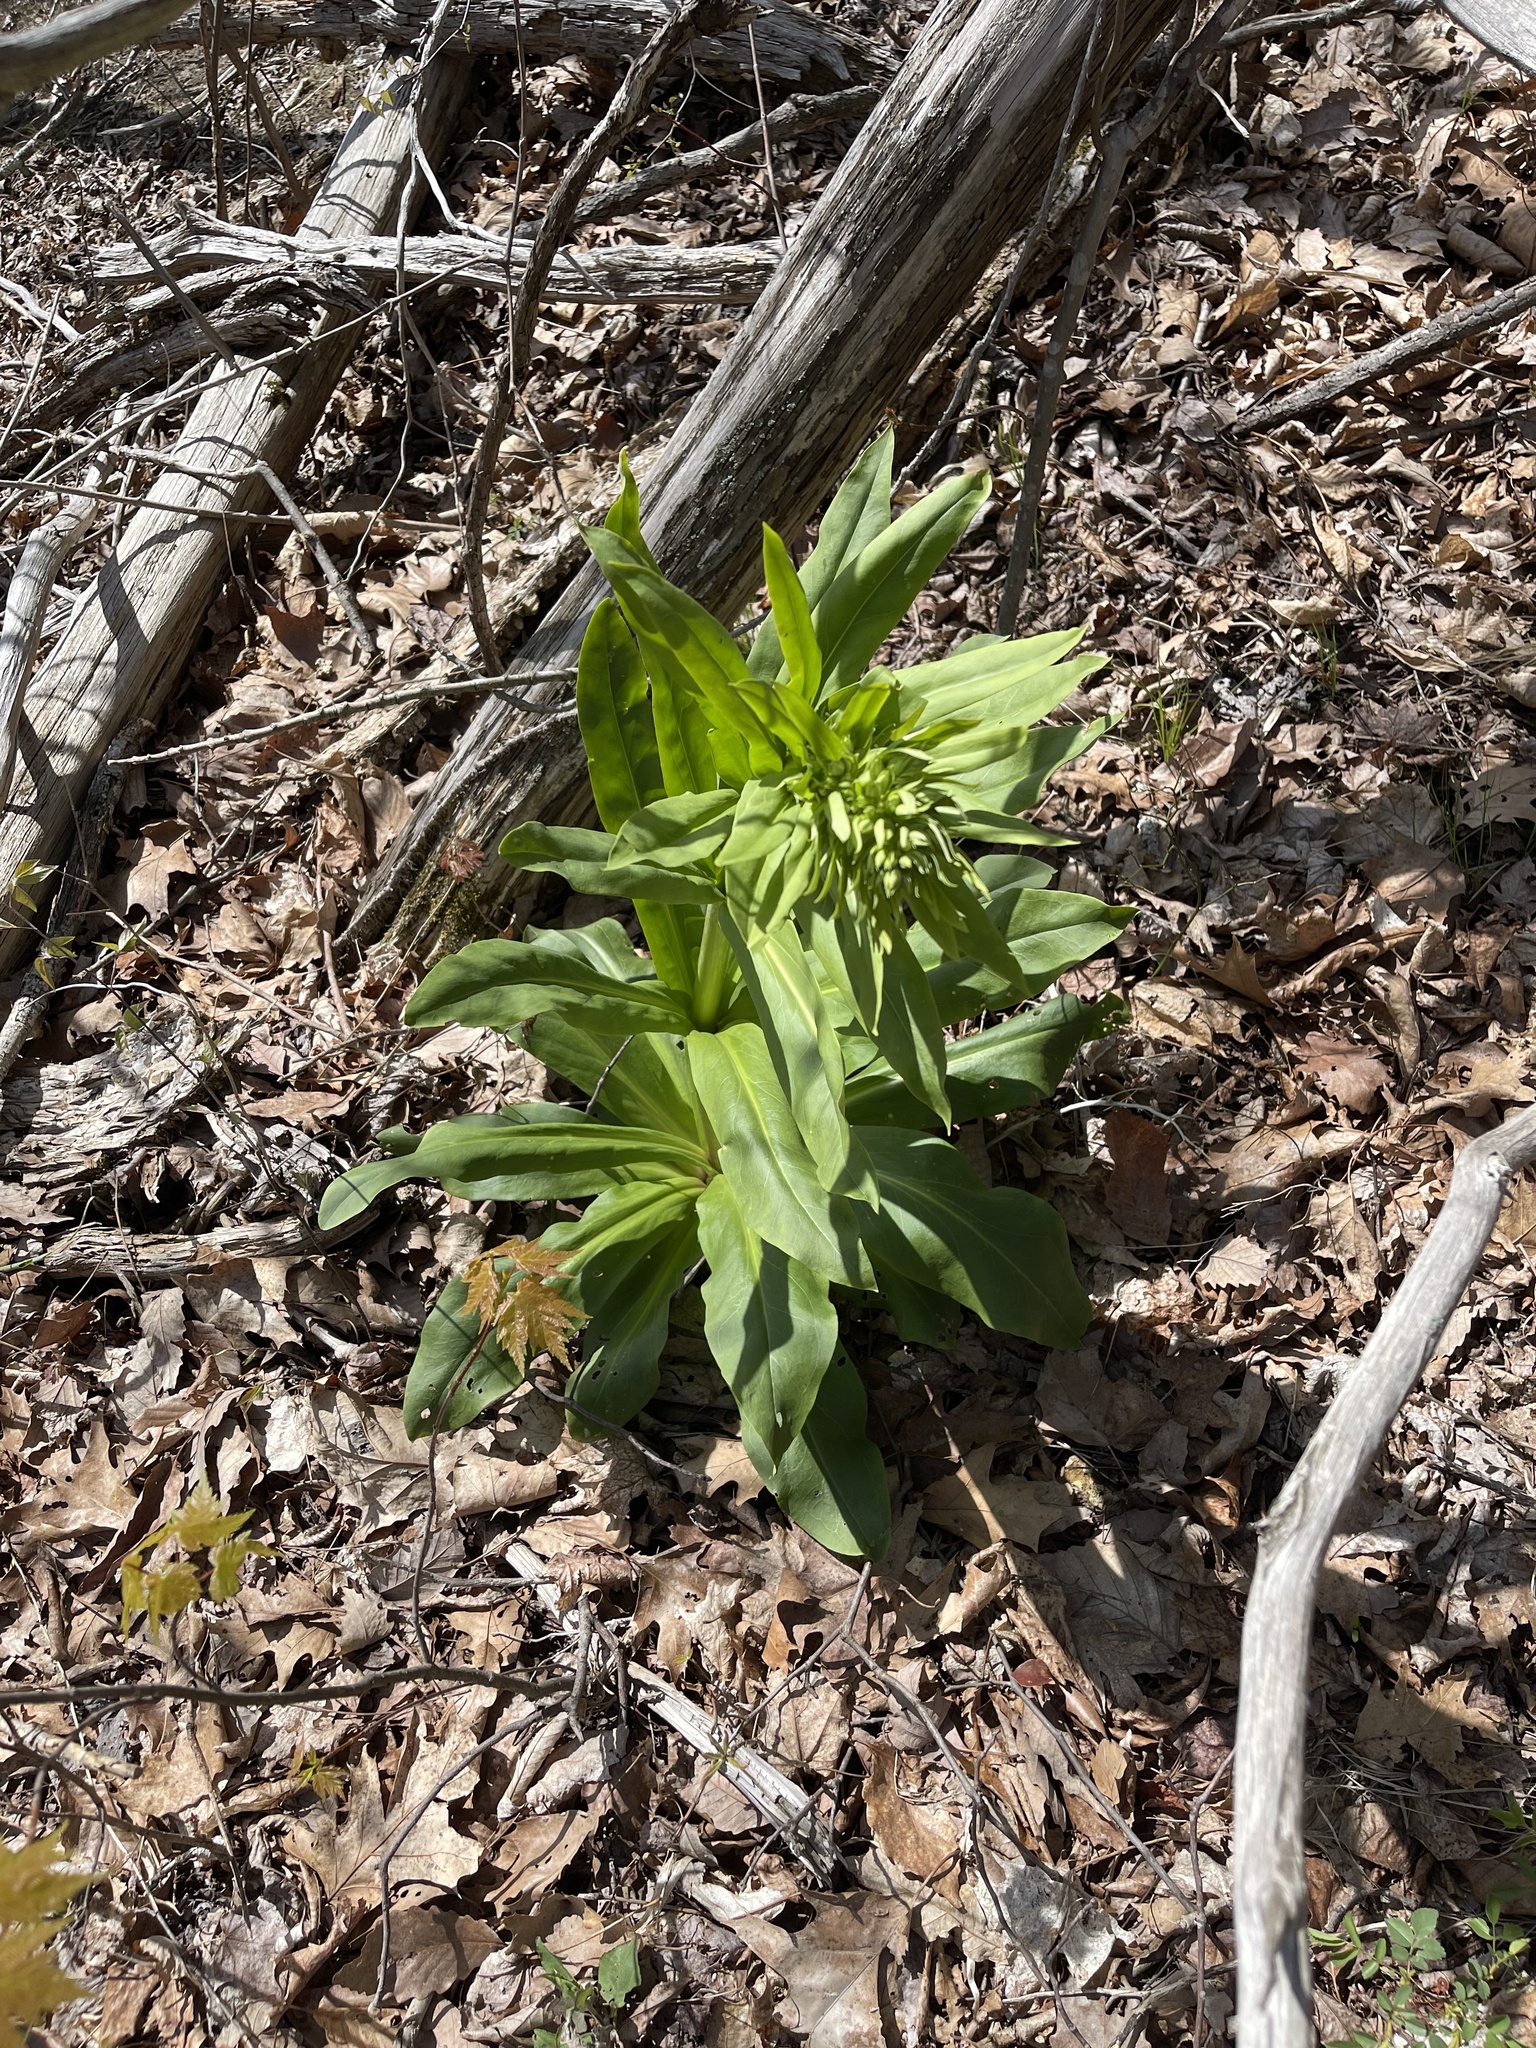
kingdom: Plantae
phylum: Tracheophyta
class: Magnoliopsida
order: Gentianales
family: Gentianaceae
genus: Frasera
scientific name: Frasera caroliniensis
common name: American columbo
